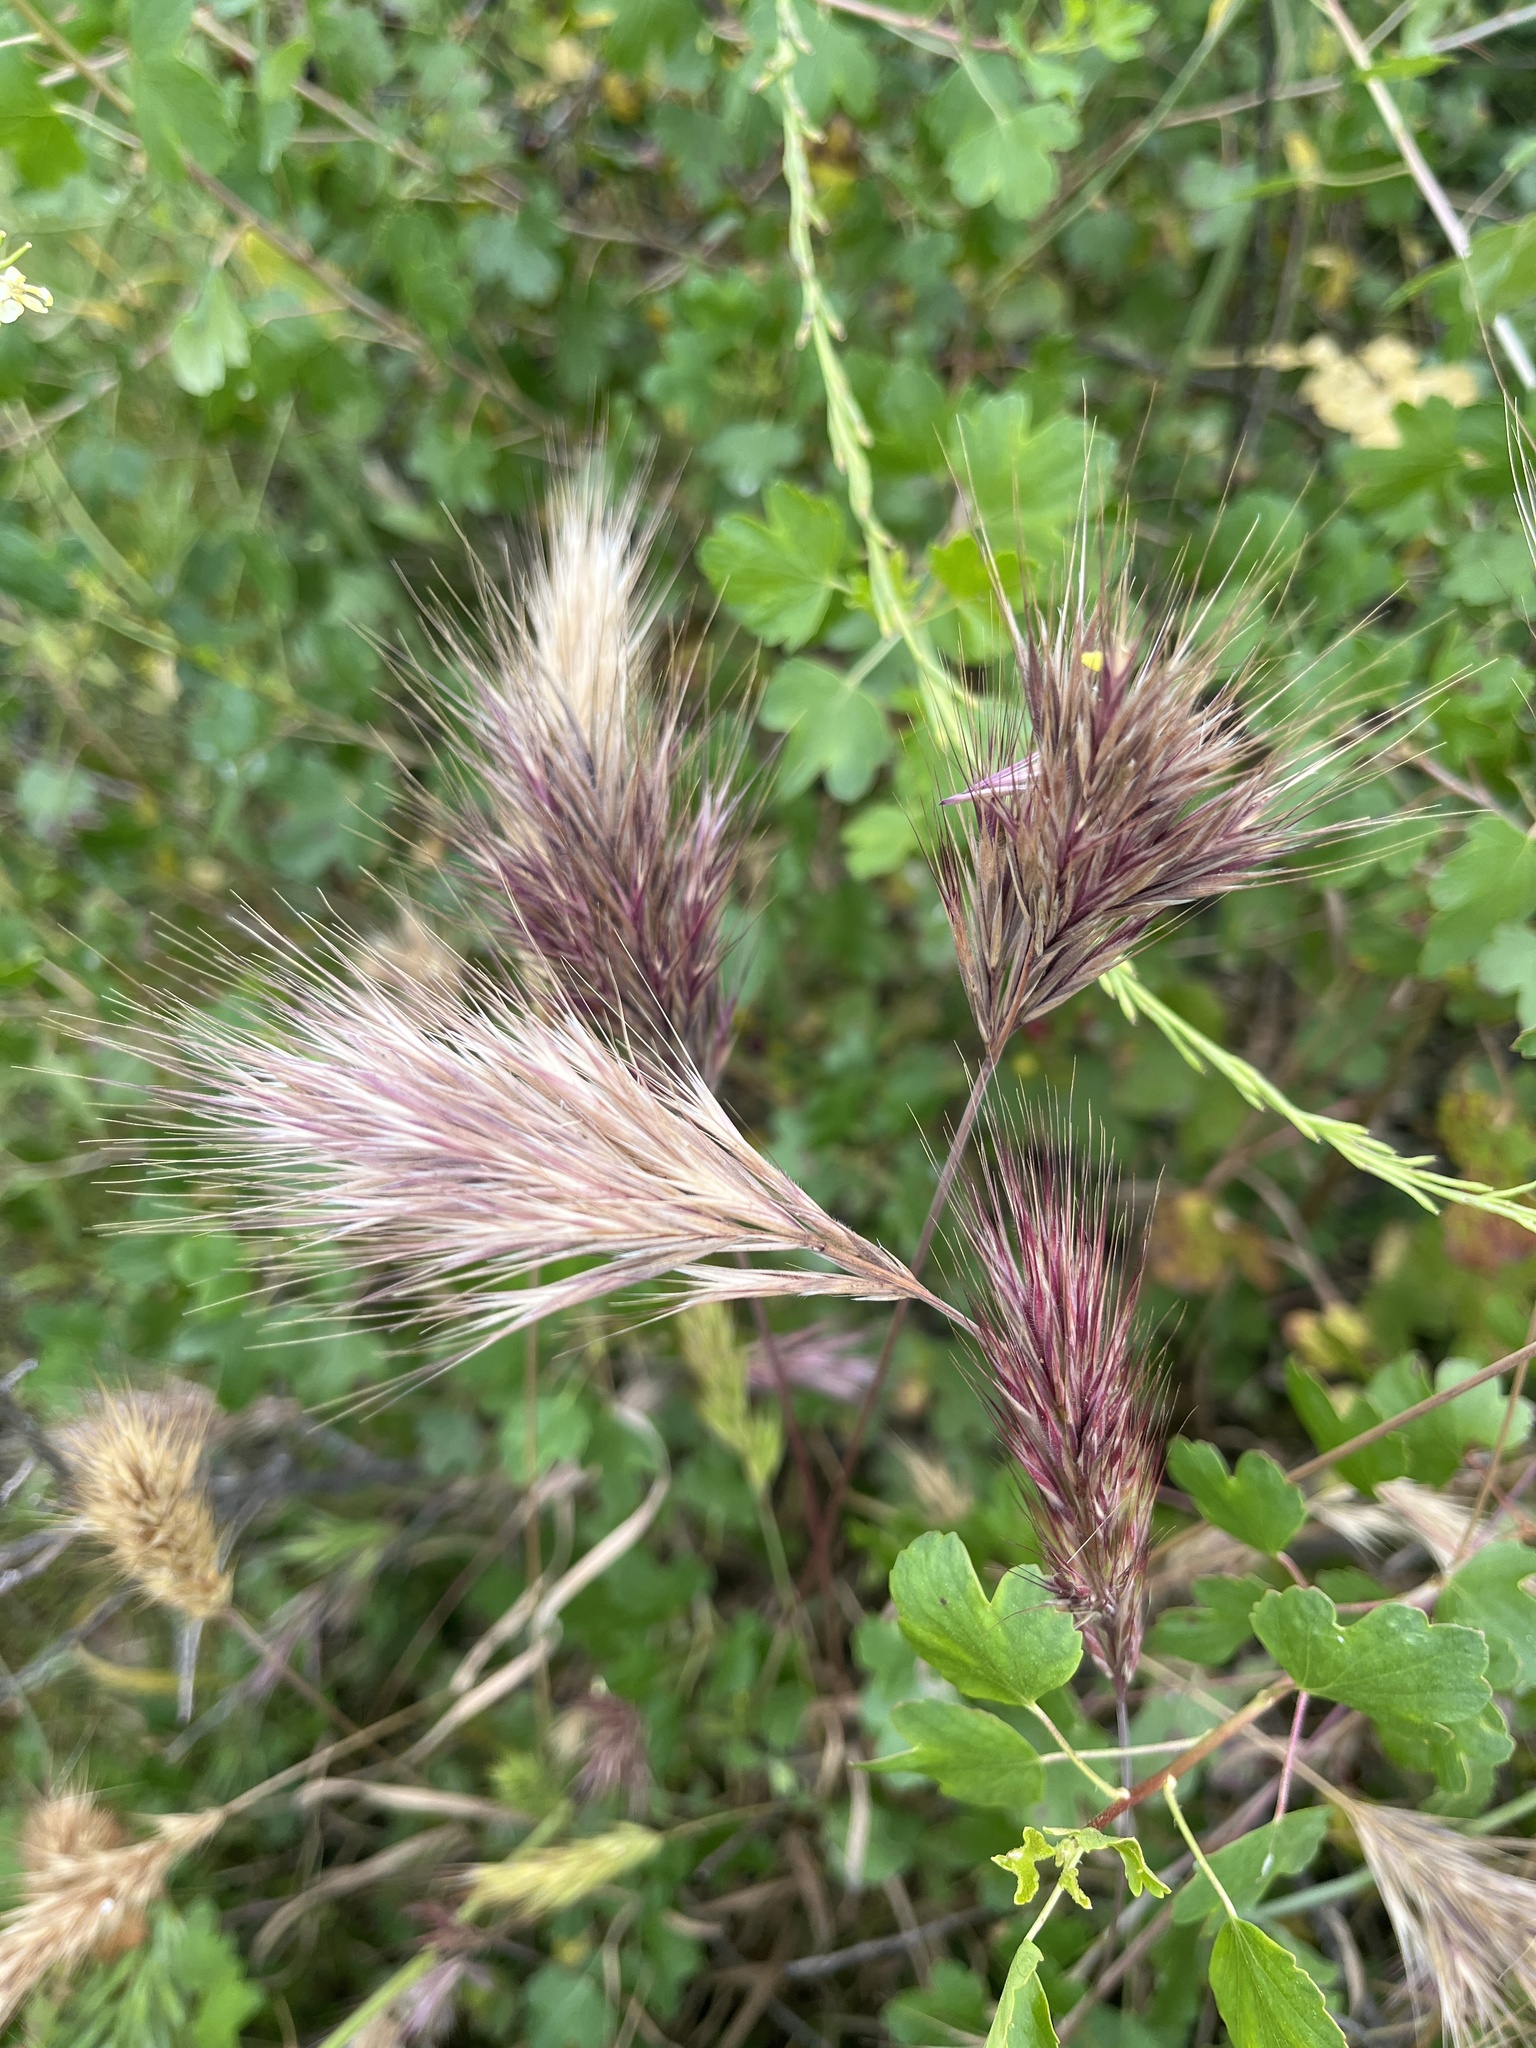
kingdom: Plantae
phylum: Tracheophyta
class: Liliopsida
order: Poales
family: Poaceae
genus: Bromus
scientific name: Bromus rubens
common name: Red brome
